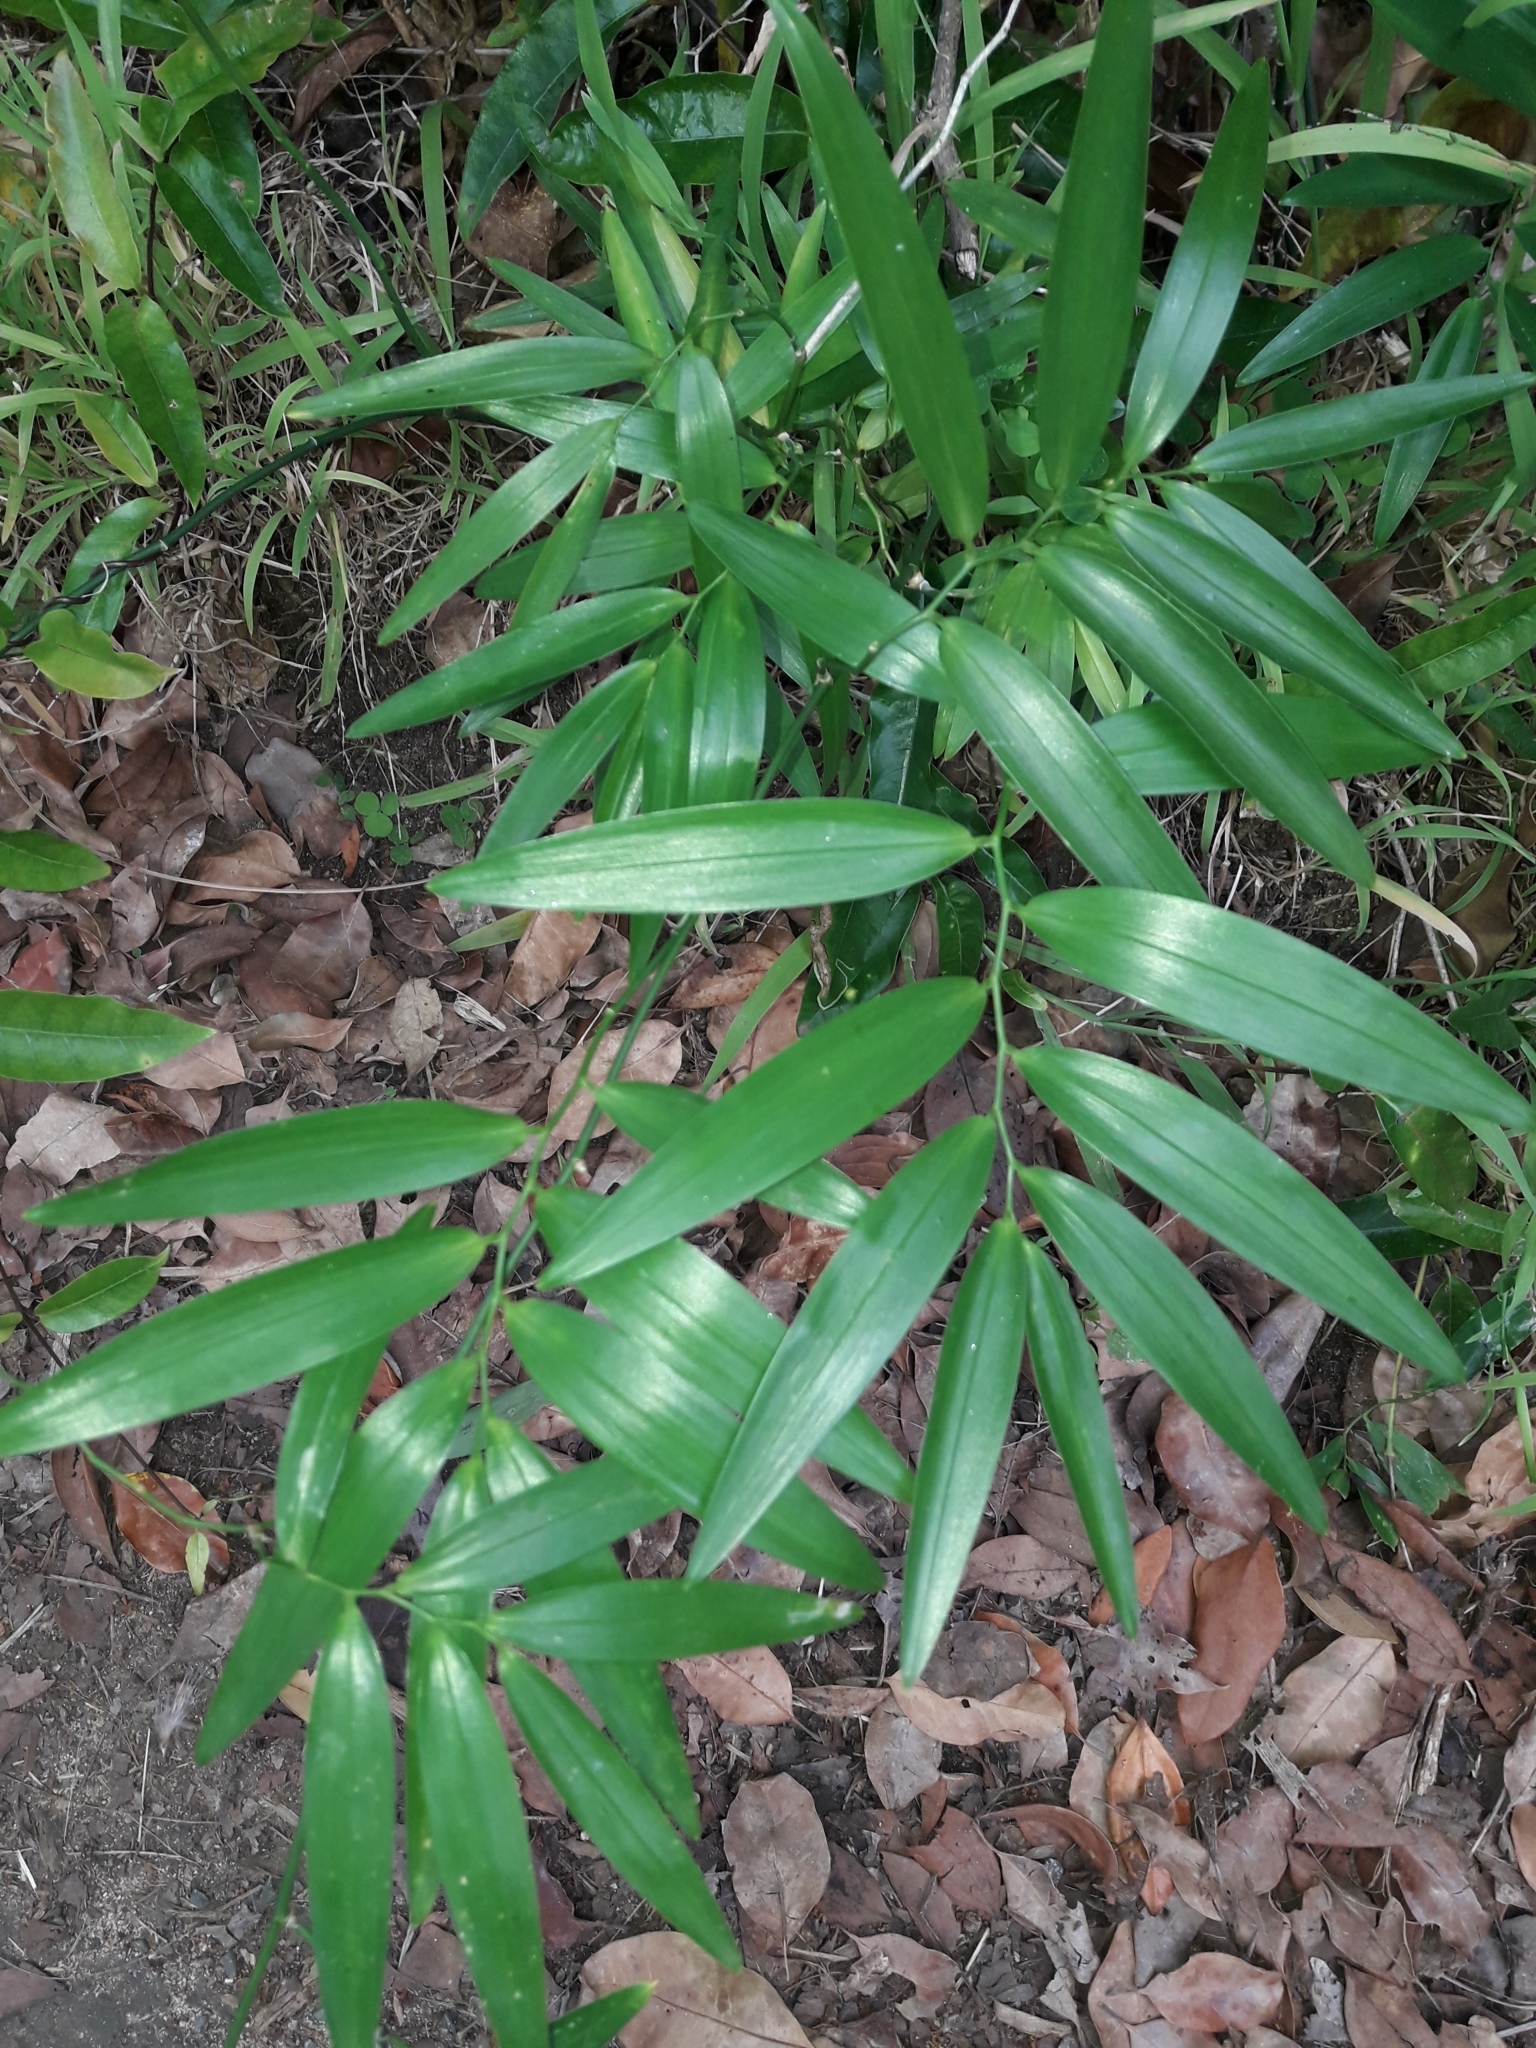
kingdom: Plantae
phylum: Tracheophyta
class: Liliopsida
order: Asparagales
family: Asphodelaceae
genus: Geitonoplesium
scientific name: Geitonoplesium cymosum
